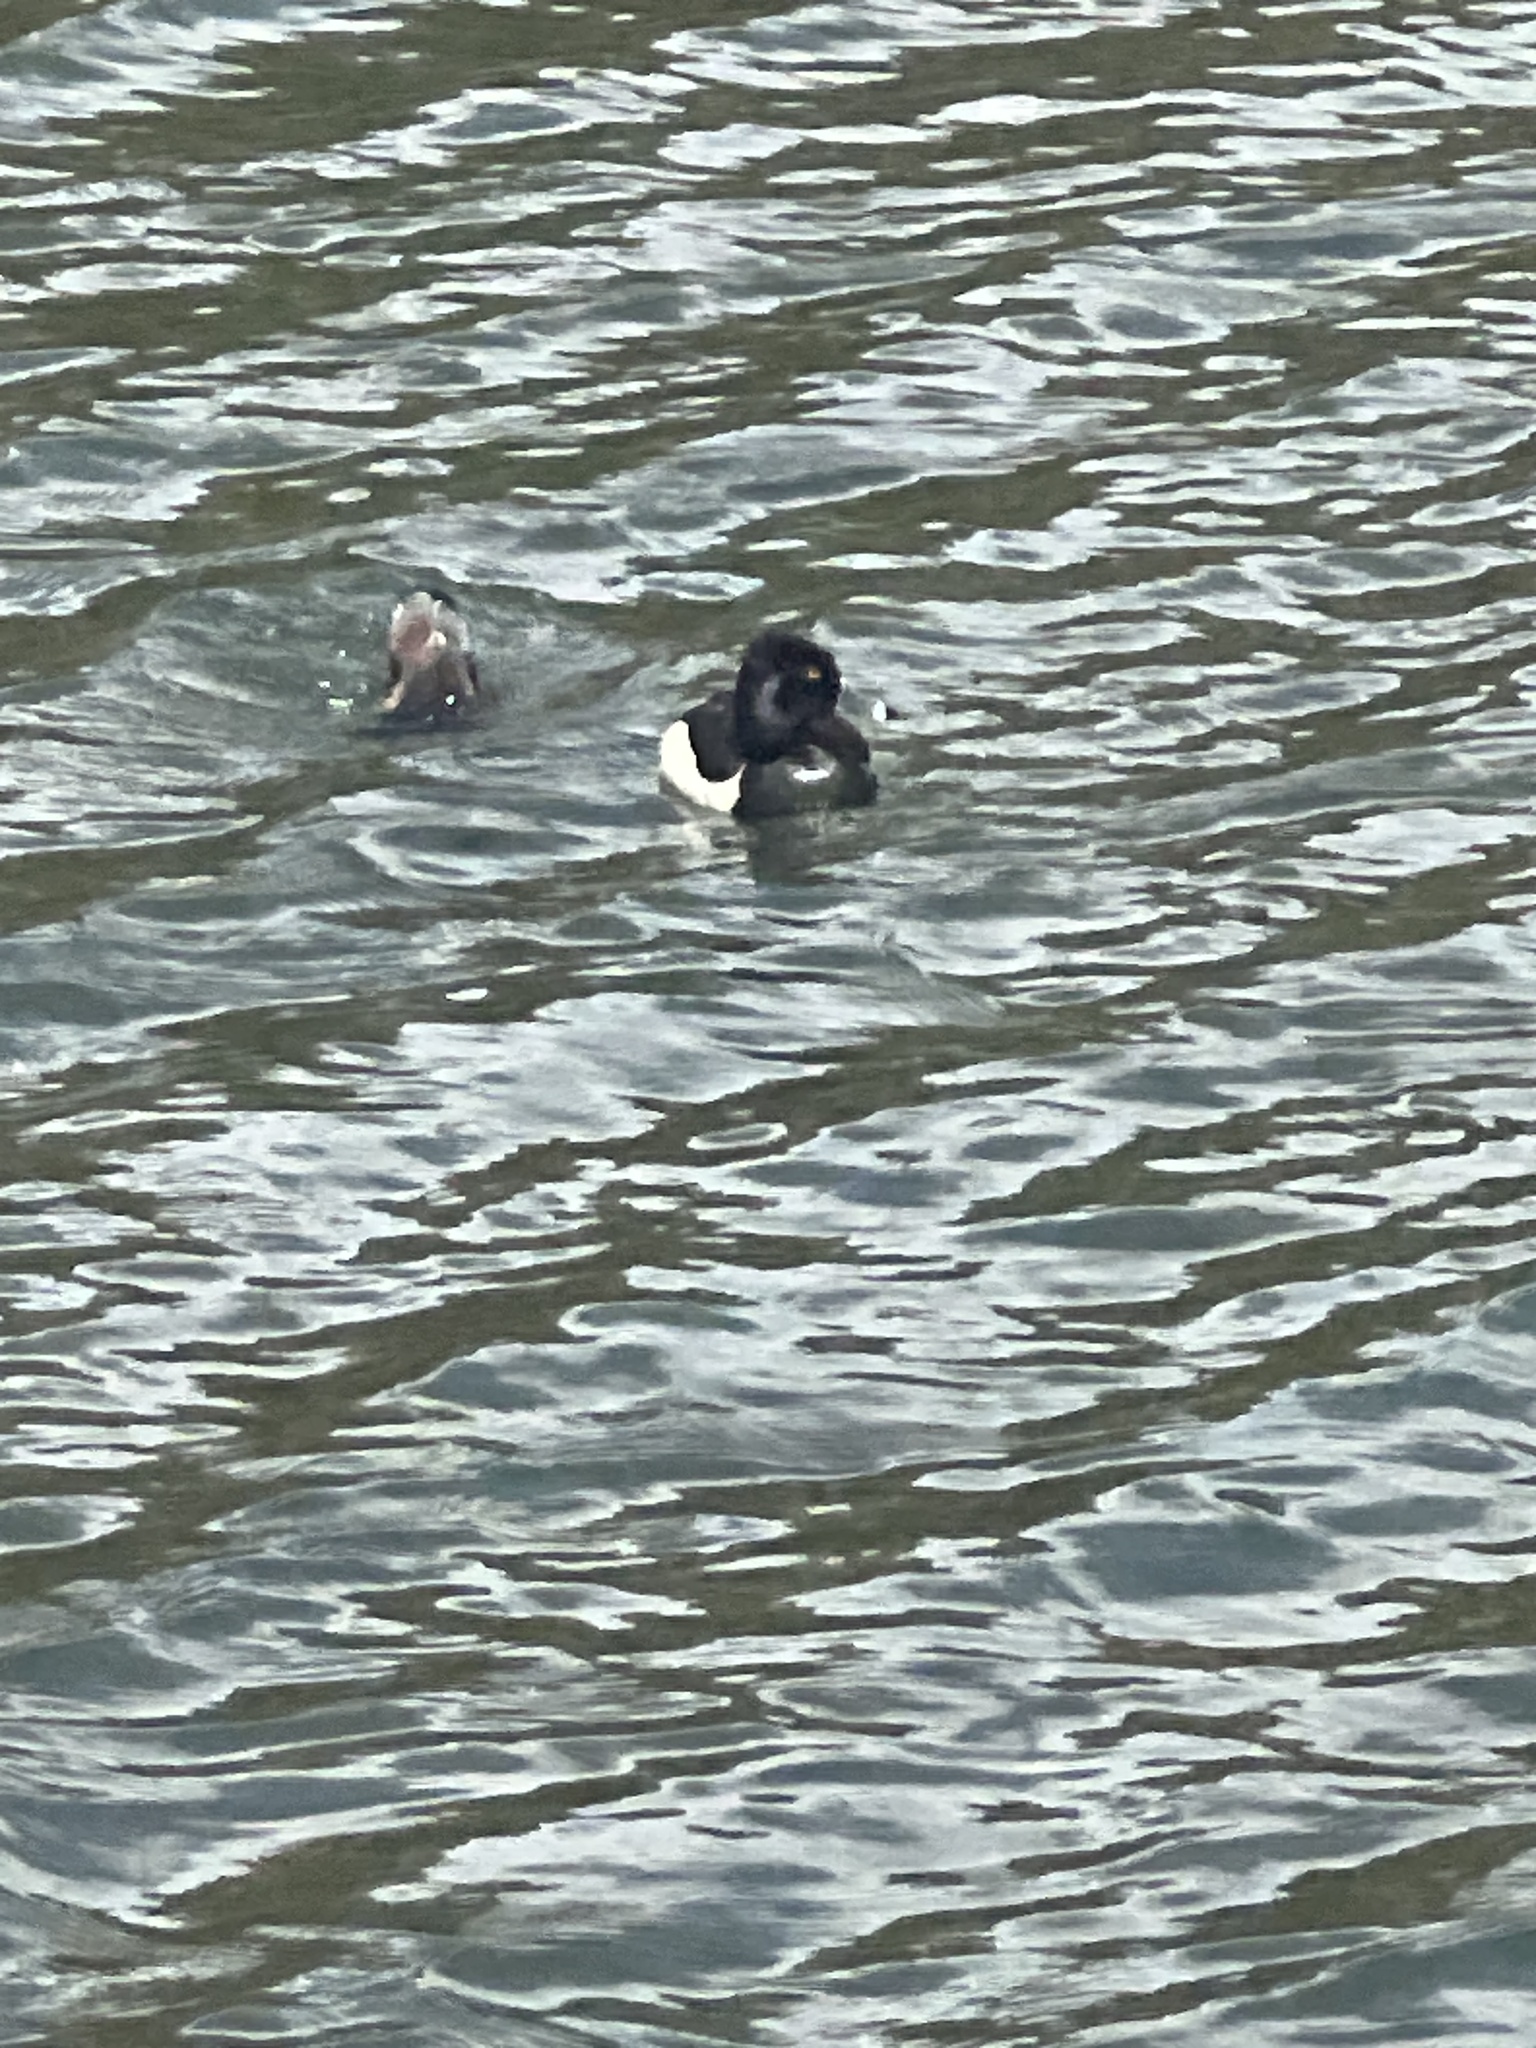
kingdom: Animalia
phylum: Chordata
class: Aves
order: Anseriformes
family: Anatidae
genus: Aythya
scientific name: Aythya collaris
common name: Ring-necked duck
